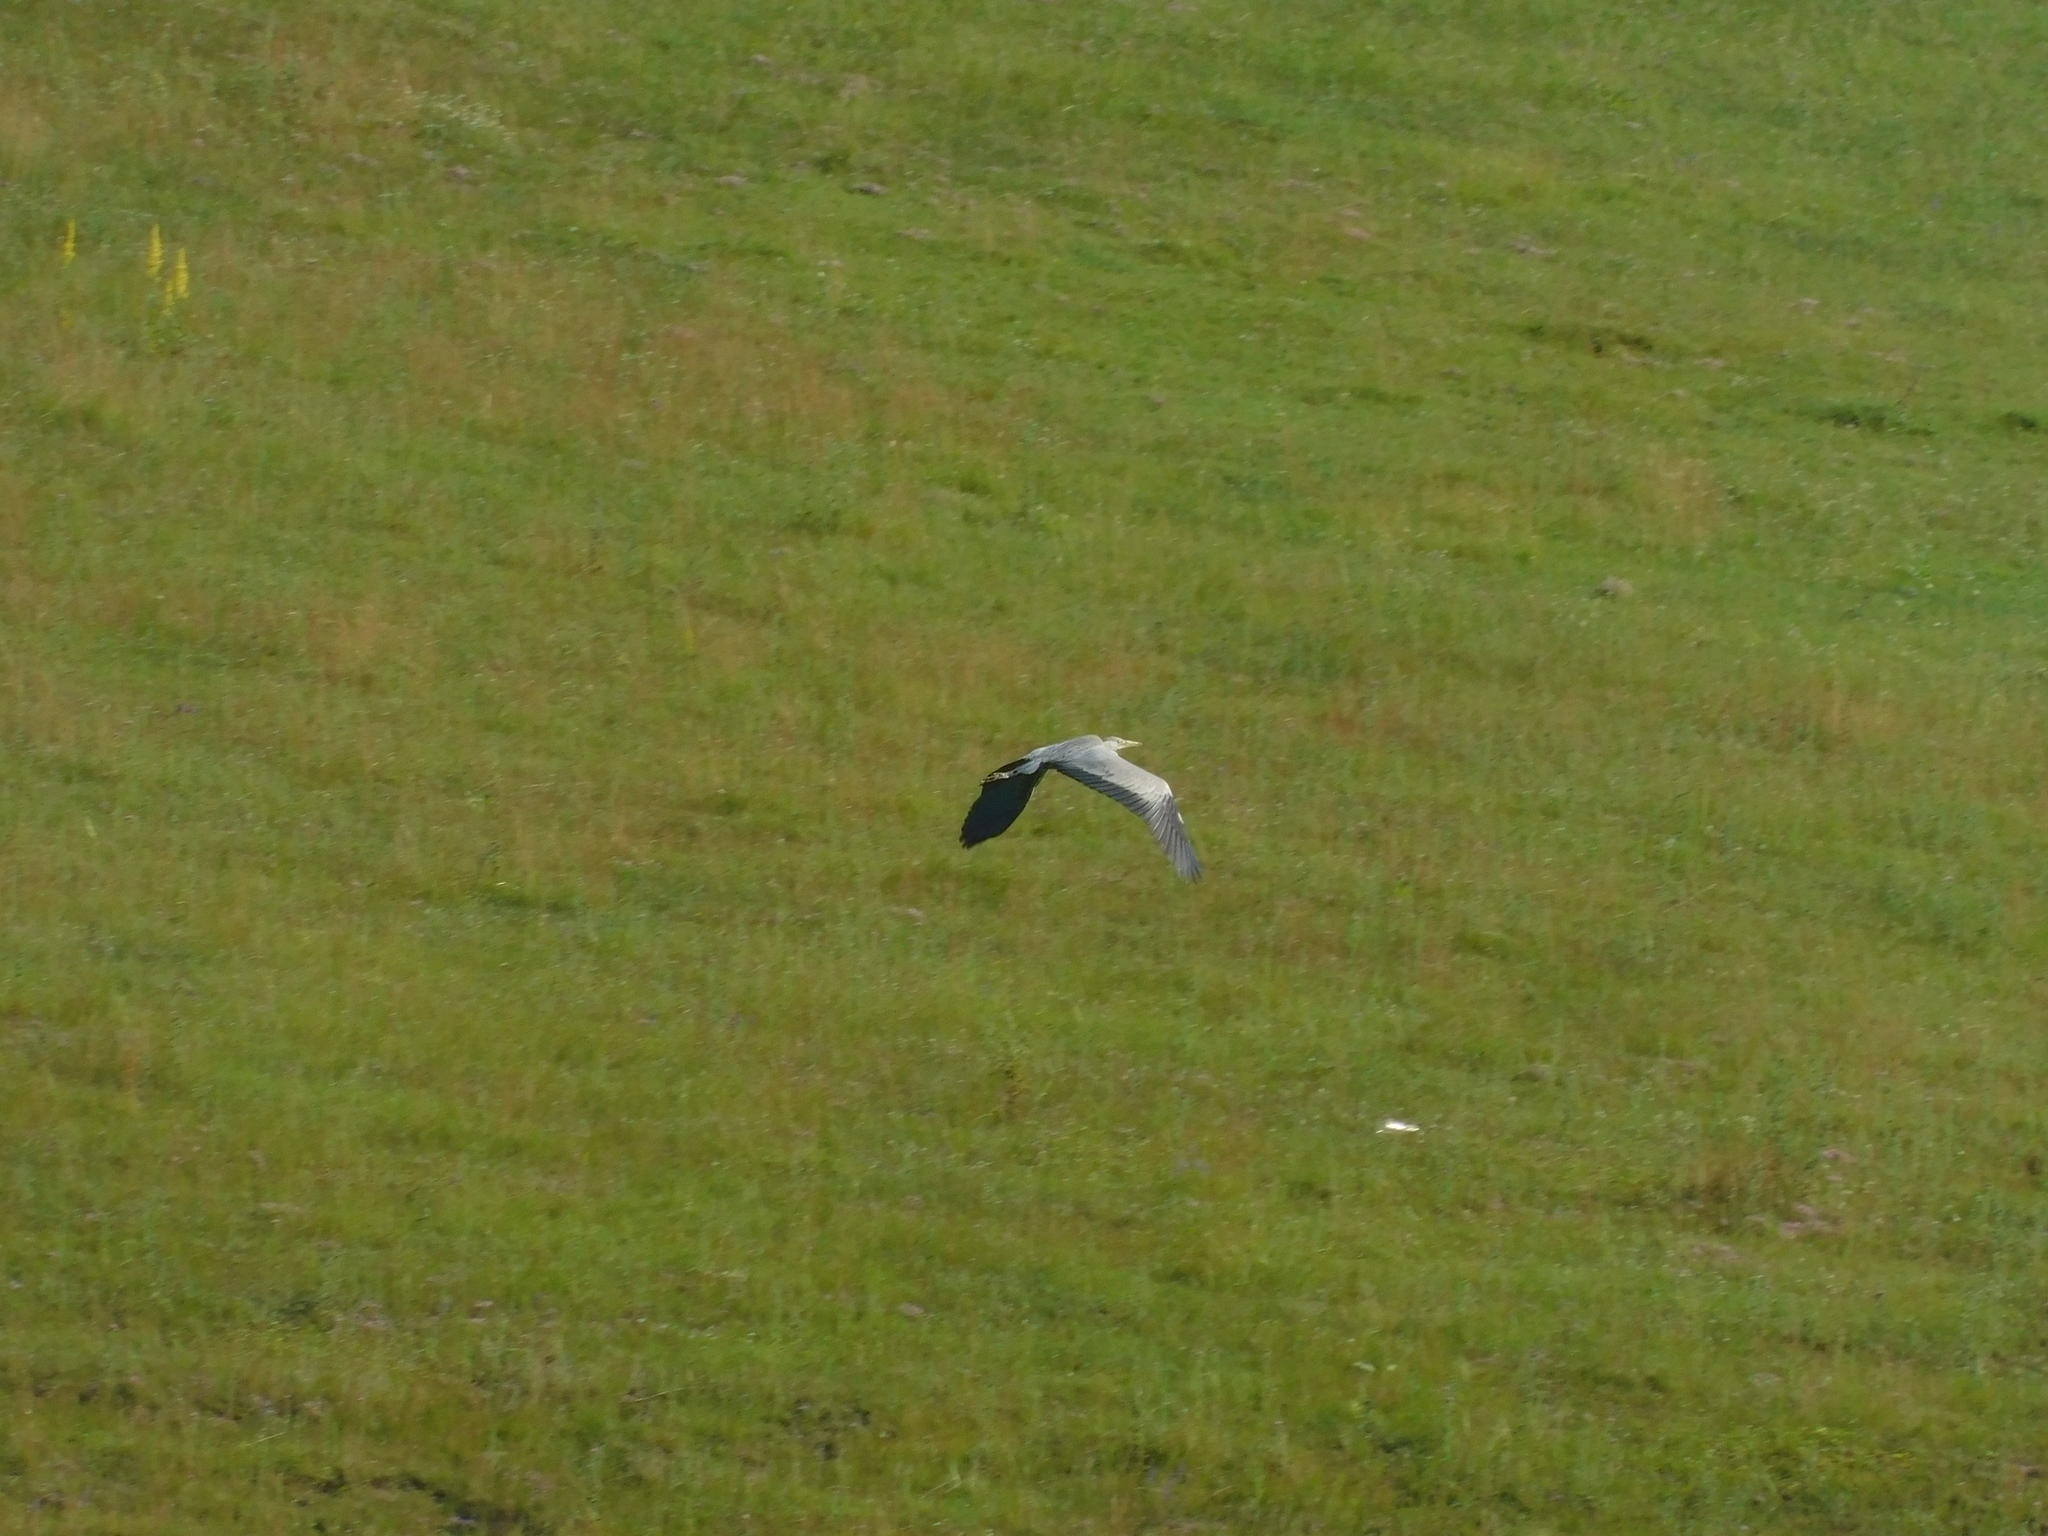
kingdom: Animalia
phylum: Chordata
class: Aves
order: Pelecaniformes
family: Ardeidae
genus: Ardea
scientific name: Ardea cinerea
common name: Grey heron
